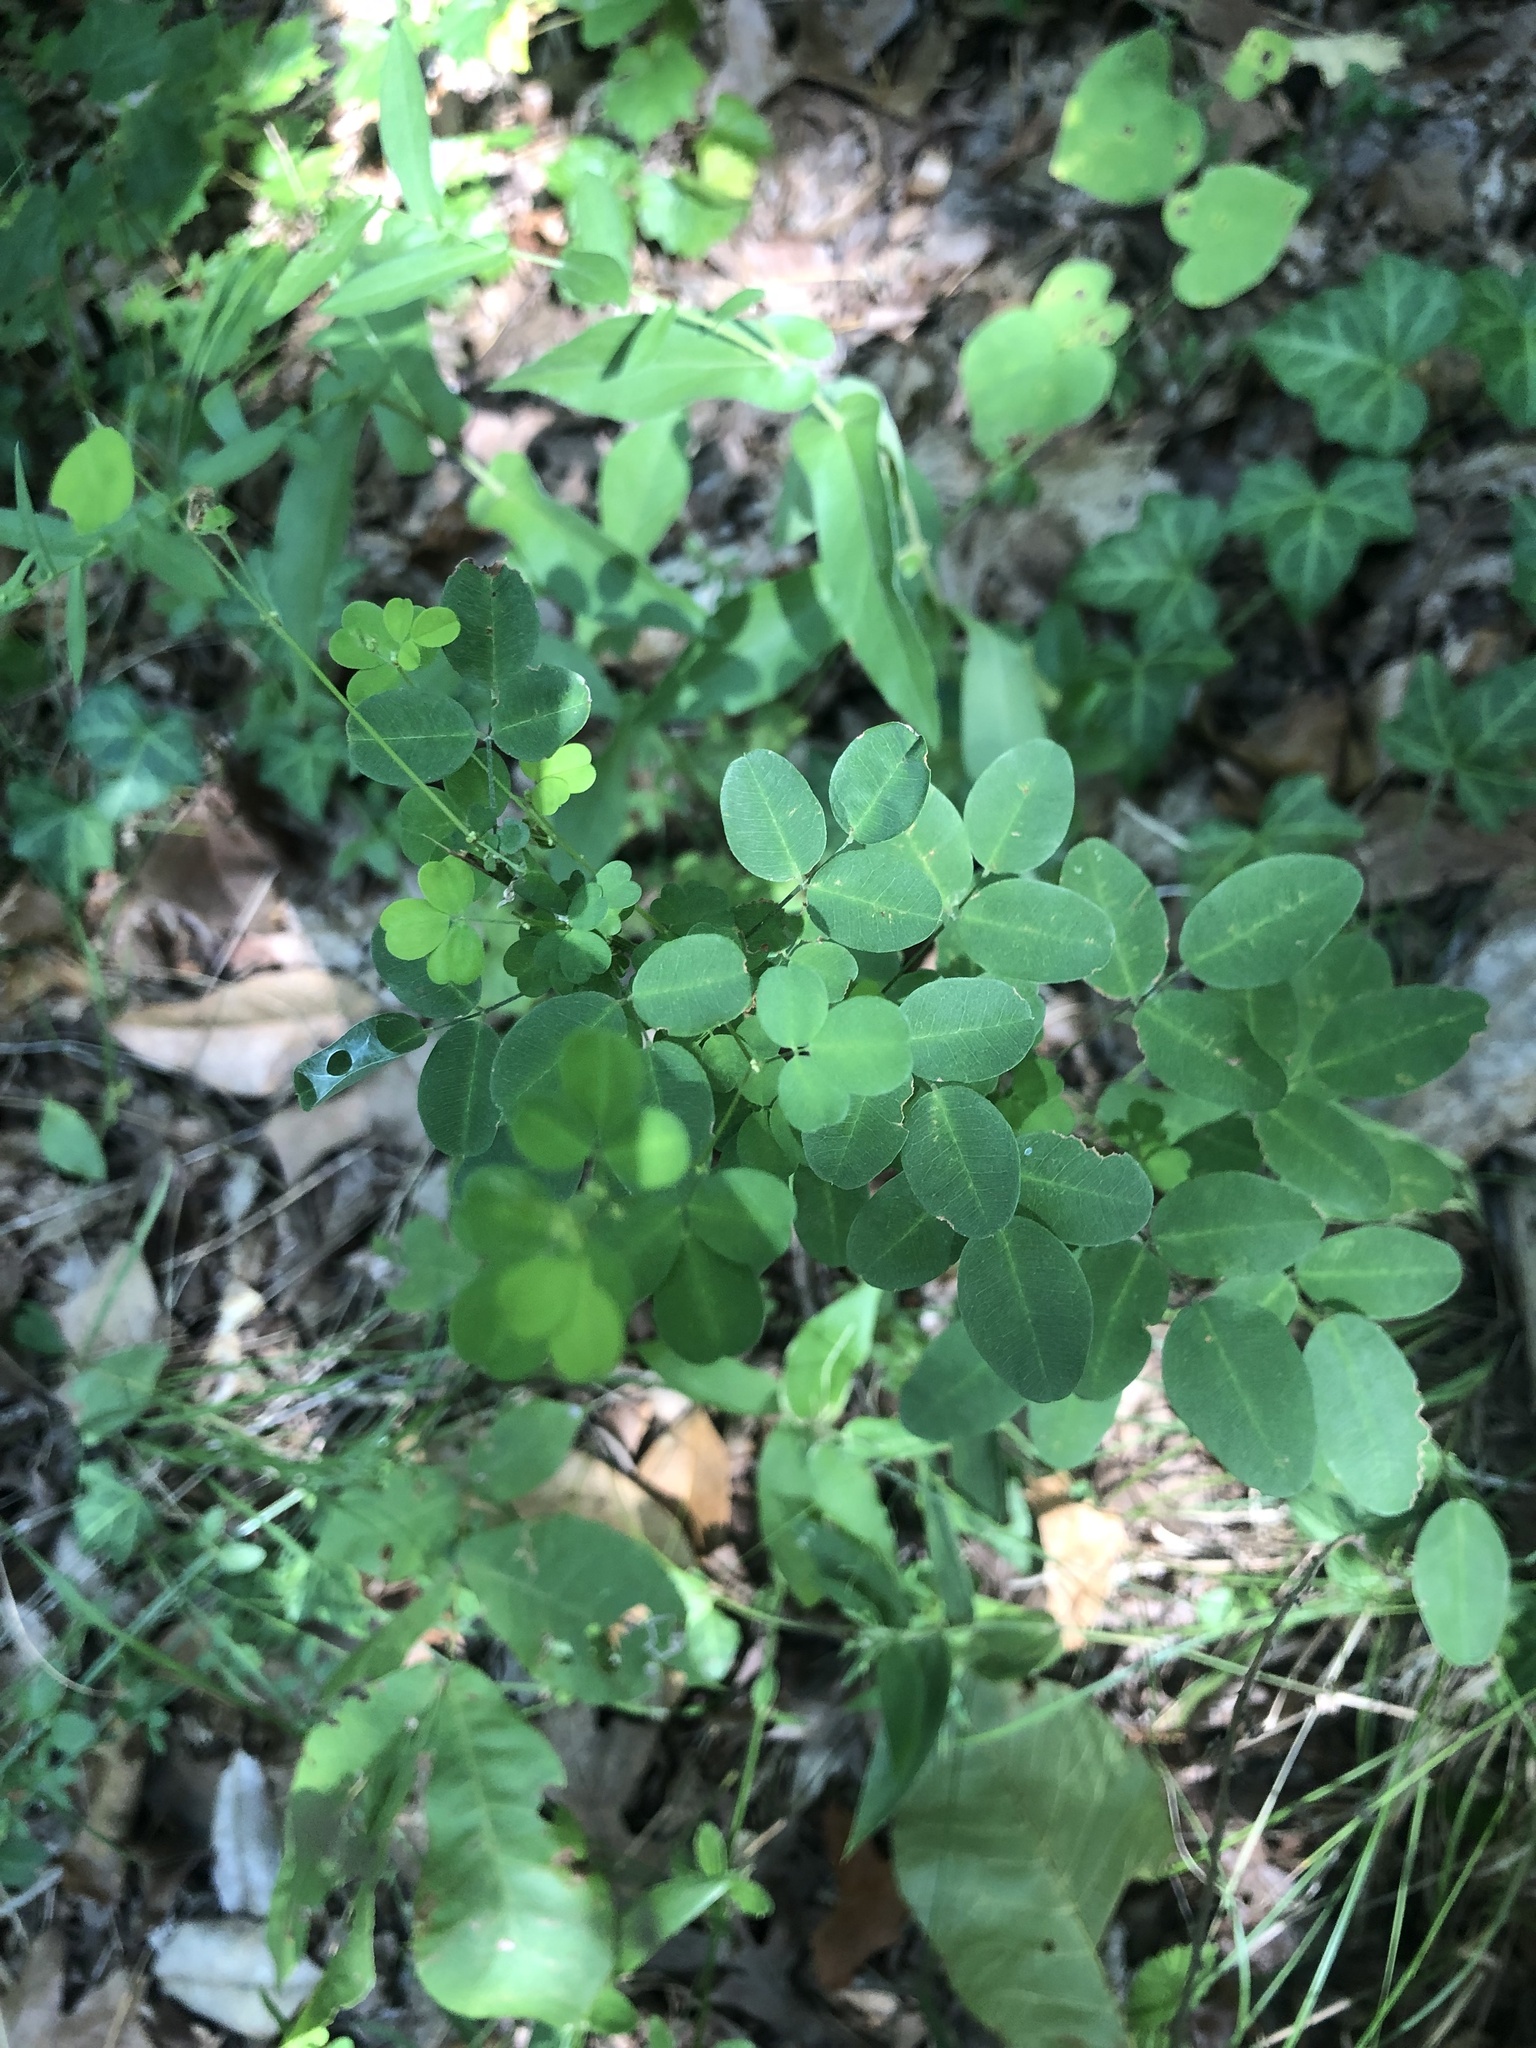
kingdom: Plantae
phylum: Tracheophyta
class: Magnoliopsida
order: Fabales
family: Fabaceae
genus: Lespedeza
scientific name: Lespedeza violacea
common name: Wand bush-clover
